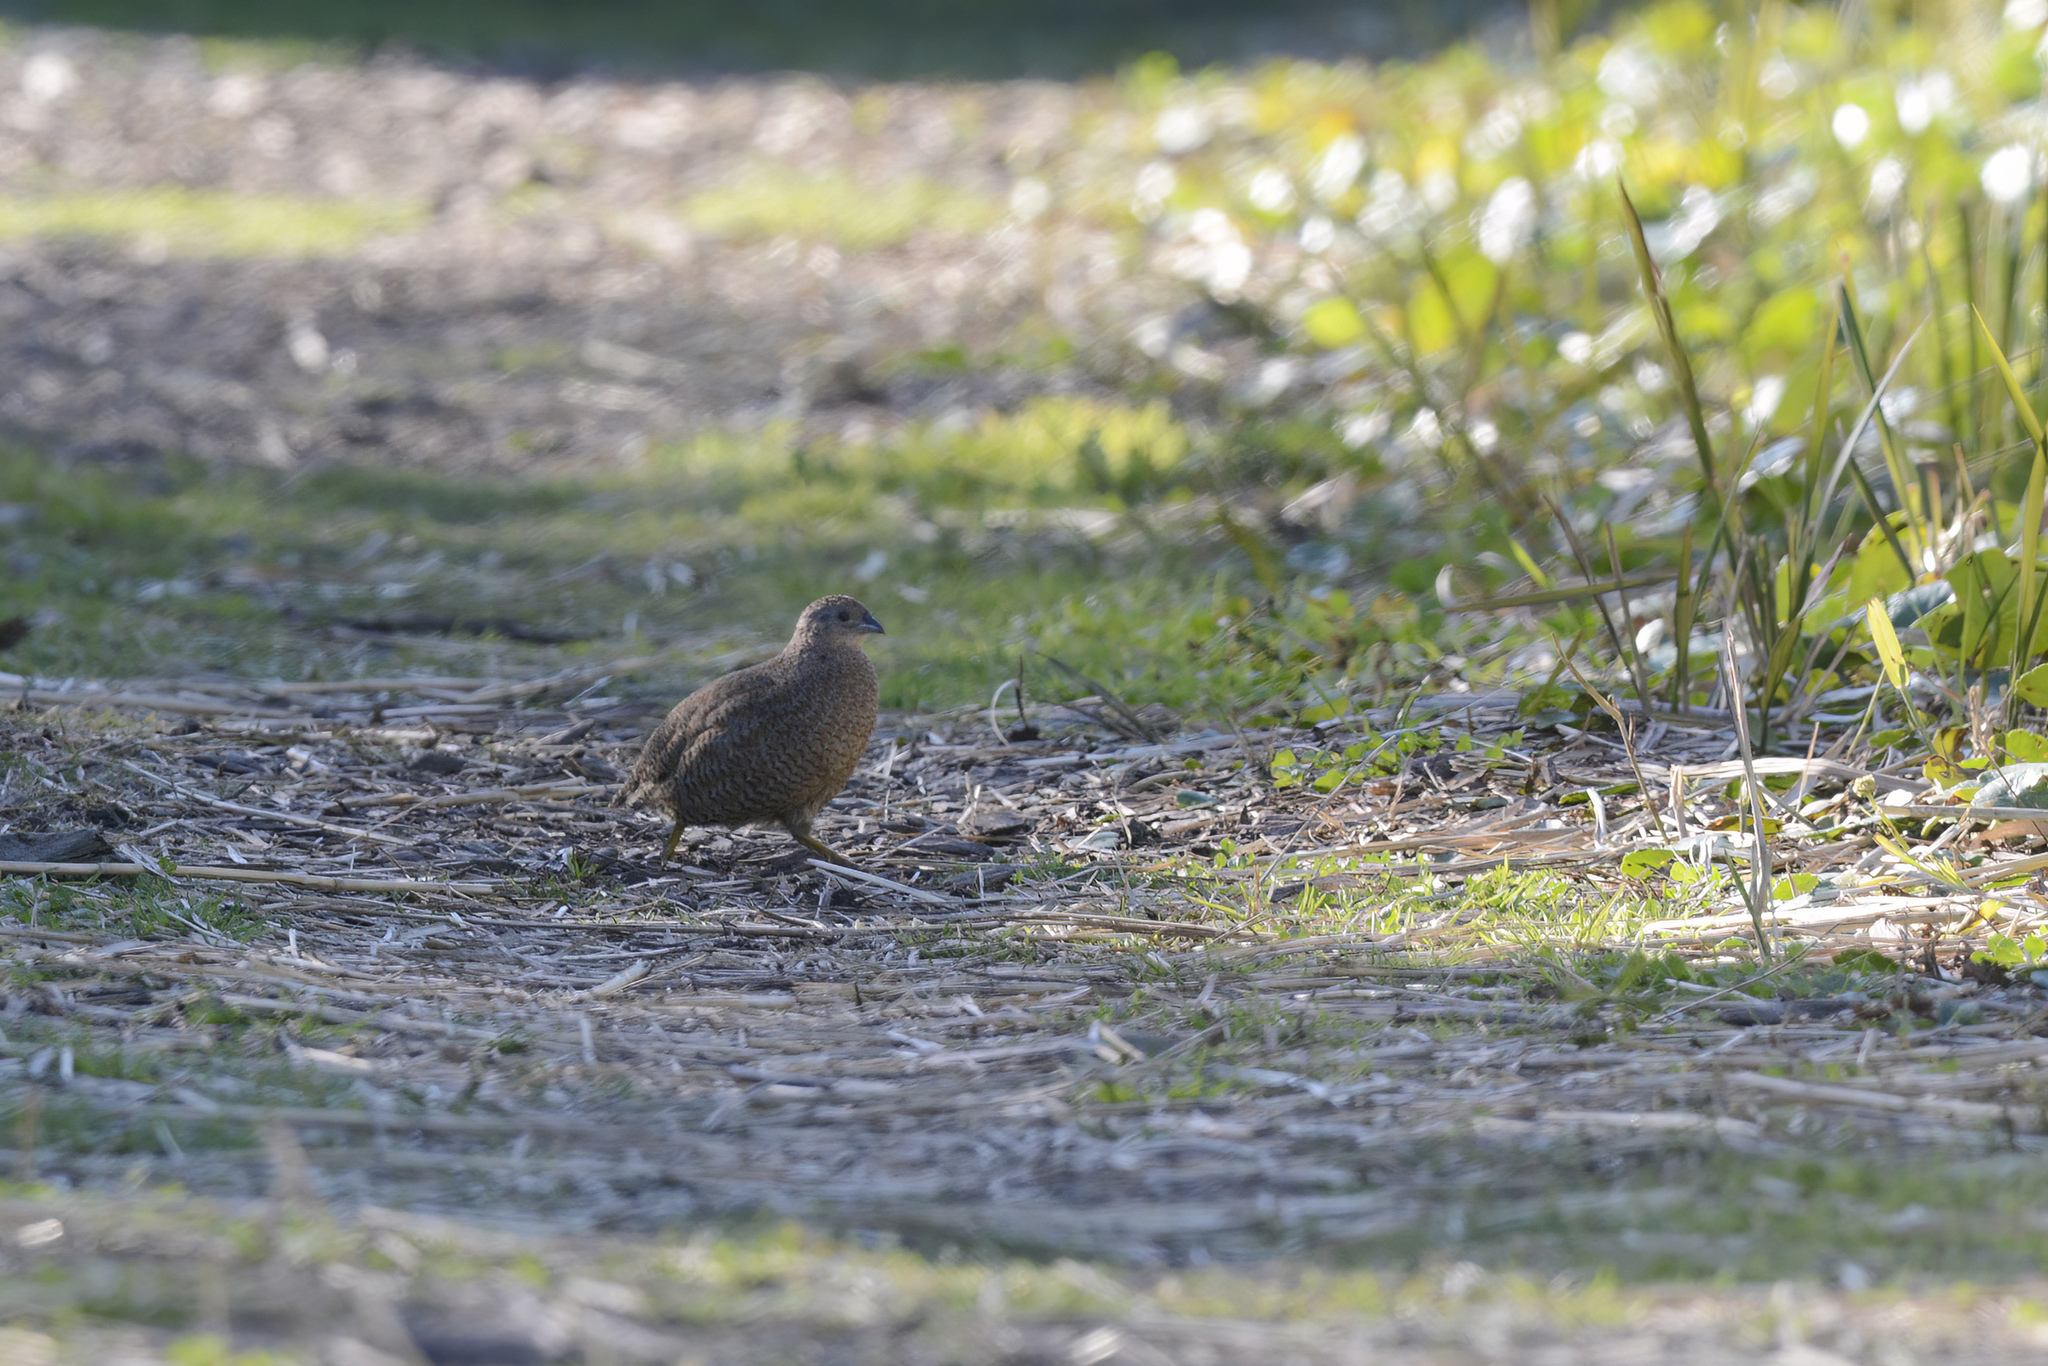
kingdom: Animalia
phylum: Chordata
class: Aves
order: Galliformes
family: Phasianidae
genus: Synoicus
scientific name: Synoicus ypsilophorus
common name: Brown quail
